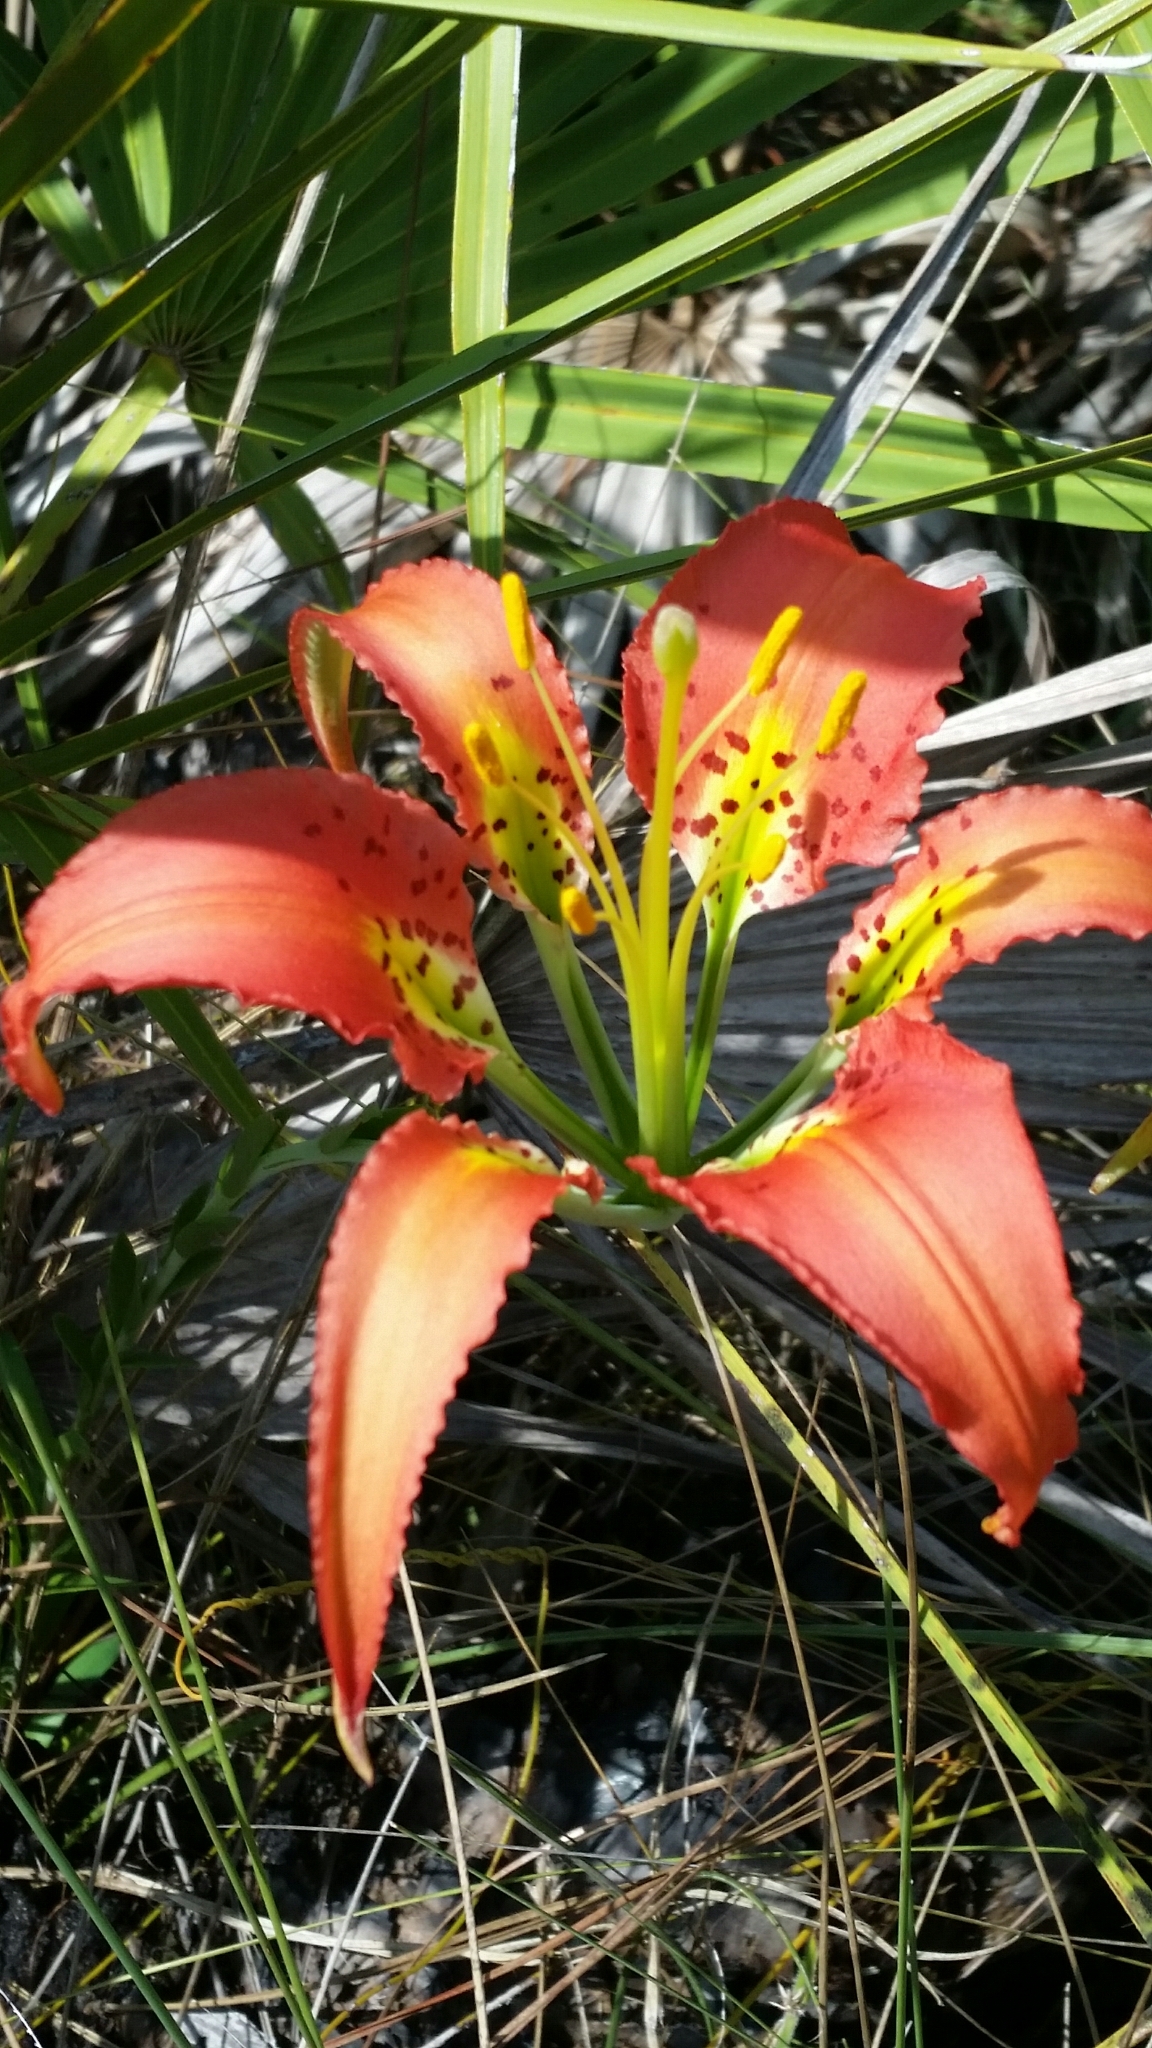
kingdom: Plantae
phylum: Tracheophyta
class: Liliopsida
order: Liliales
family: Liliaceae
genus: Lilium
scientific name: Lilium catesbaei
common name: Catesby's lily
